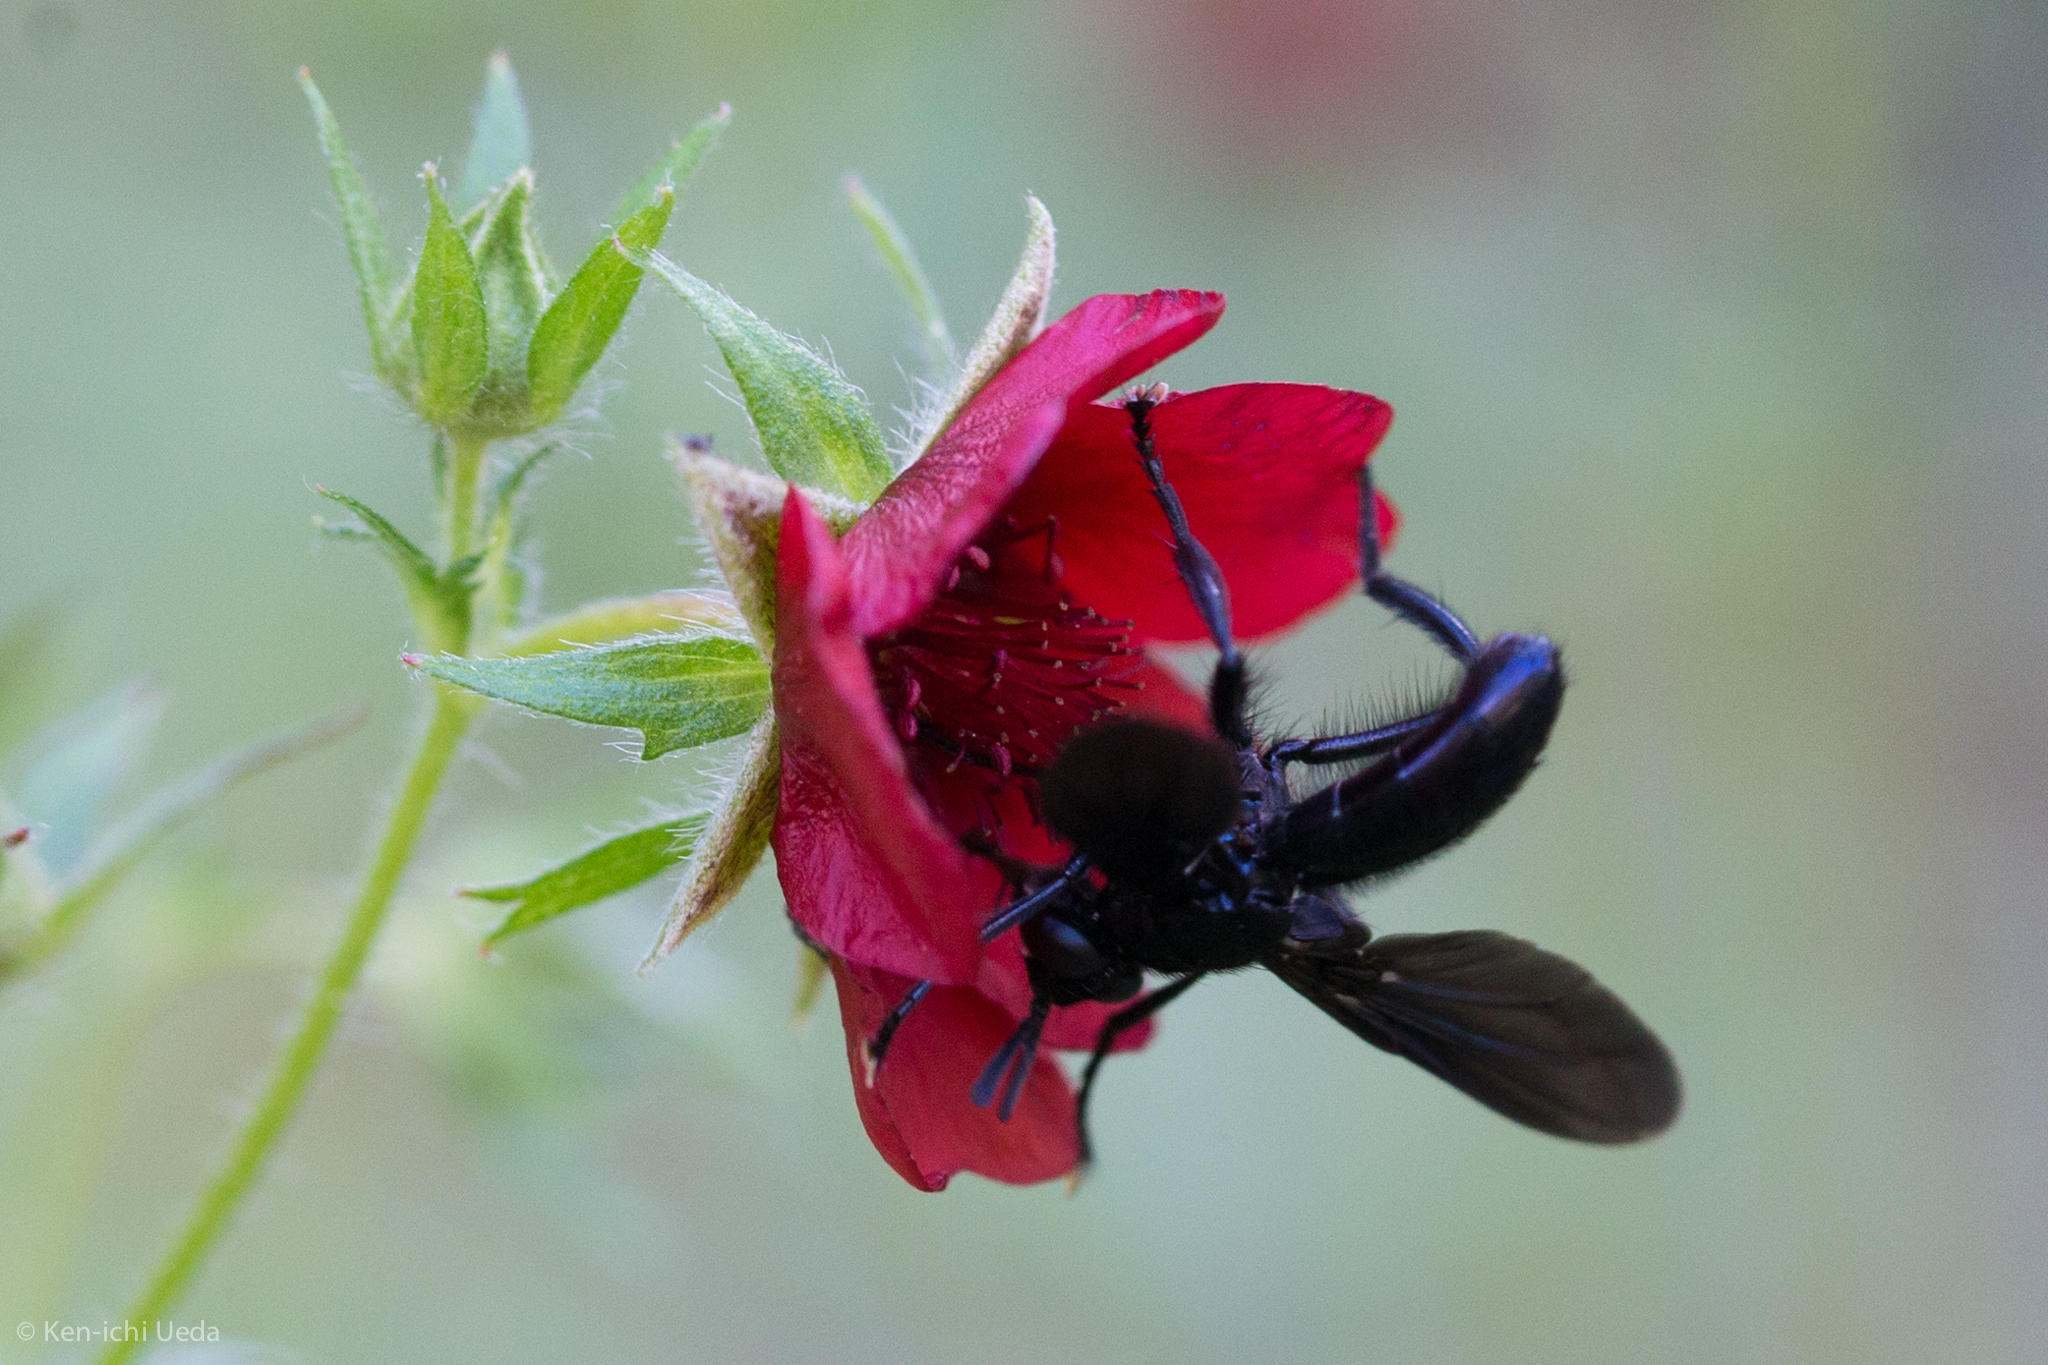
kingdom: Animalia
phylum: Arthropoda
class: Insecta
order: Diptera
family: Tachinidae
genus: Penthosia
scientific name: Penthosia satanica
